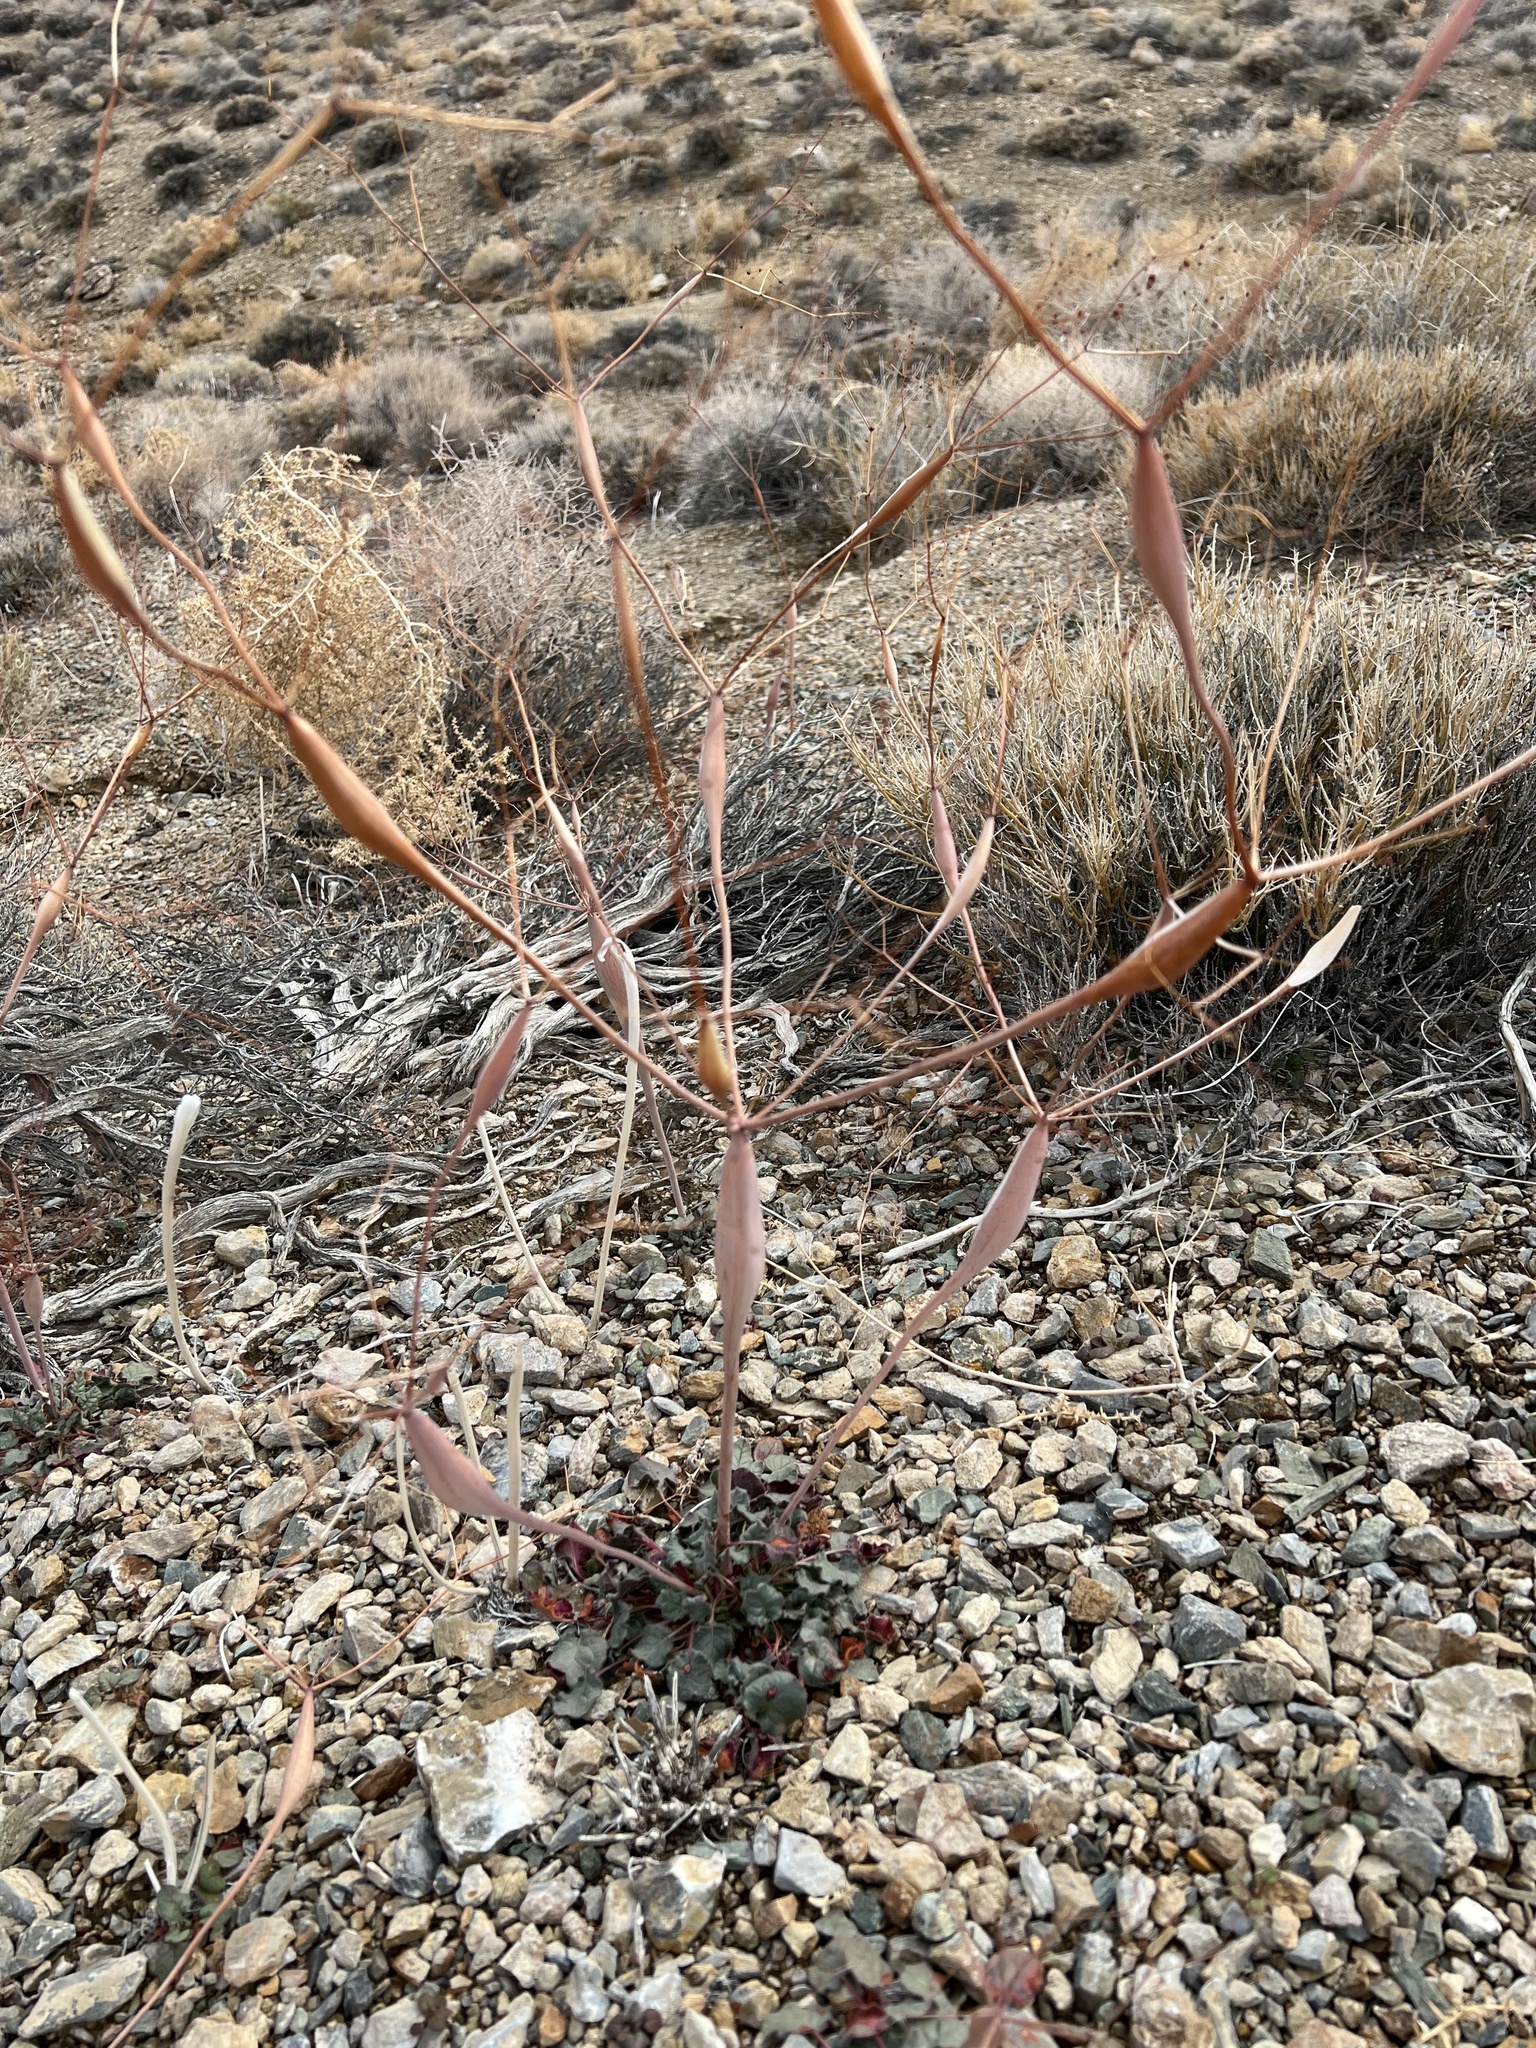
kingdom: Plantae
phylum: Tracheophyta
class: Magnoliopsida
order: Caryophyllales
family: Polygonaceae
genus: Eriogonum
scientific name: Eriogonum inflatum
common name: Desert trumpet
